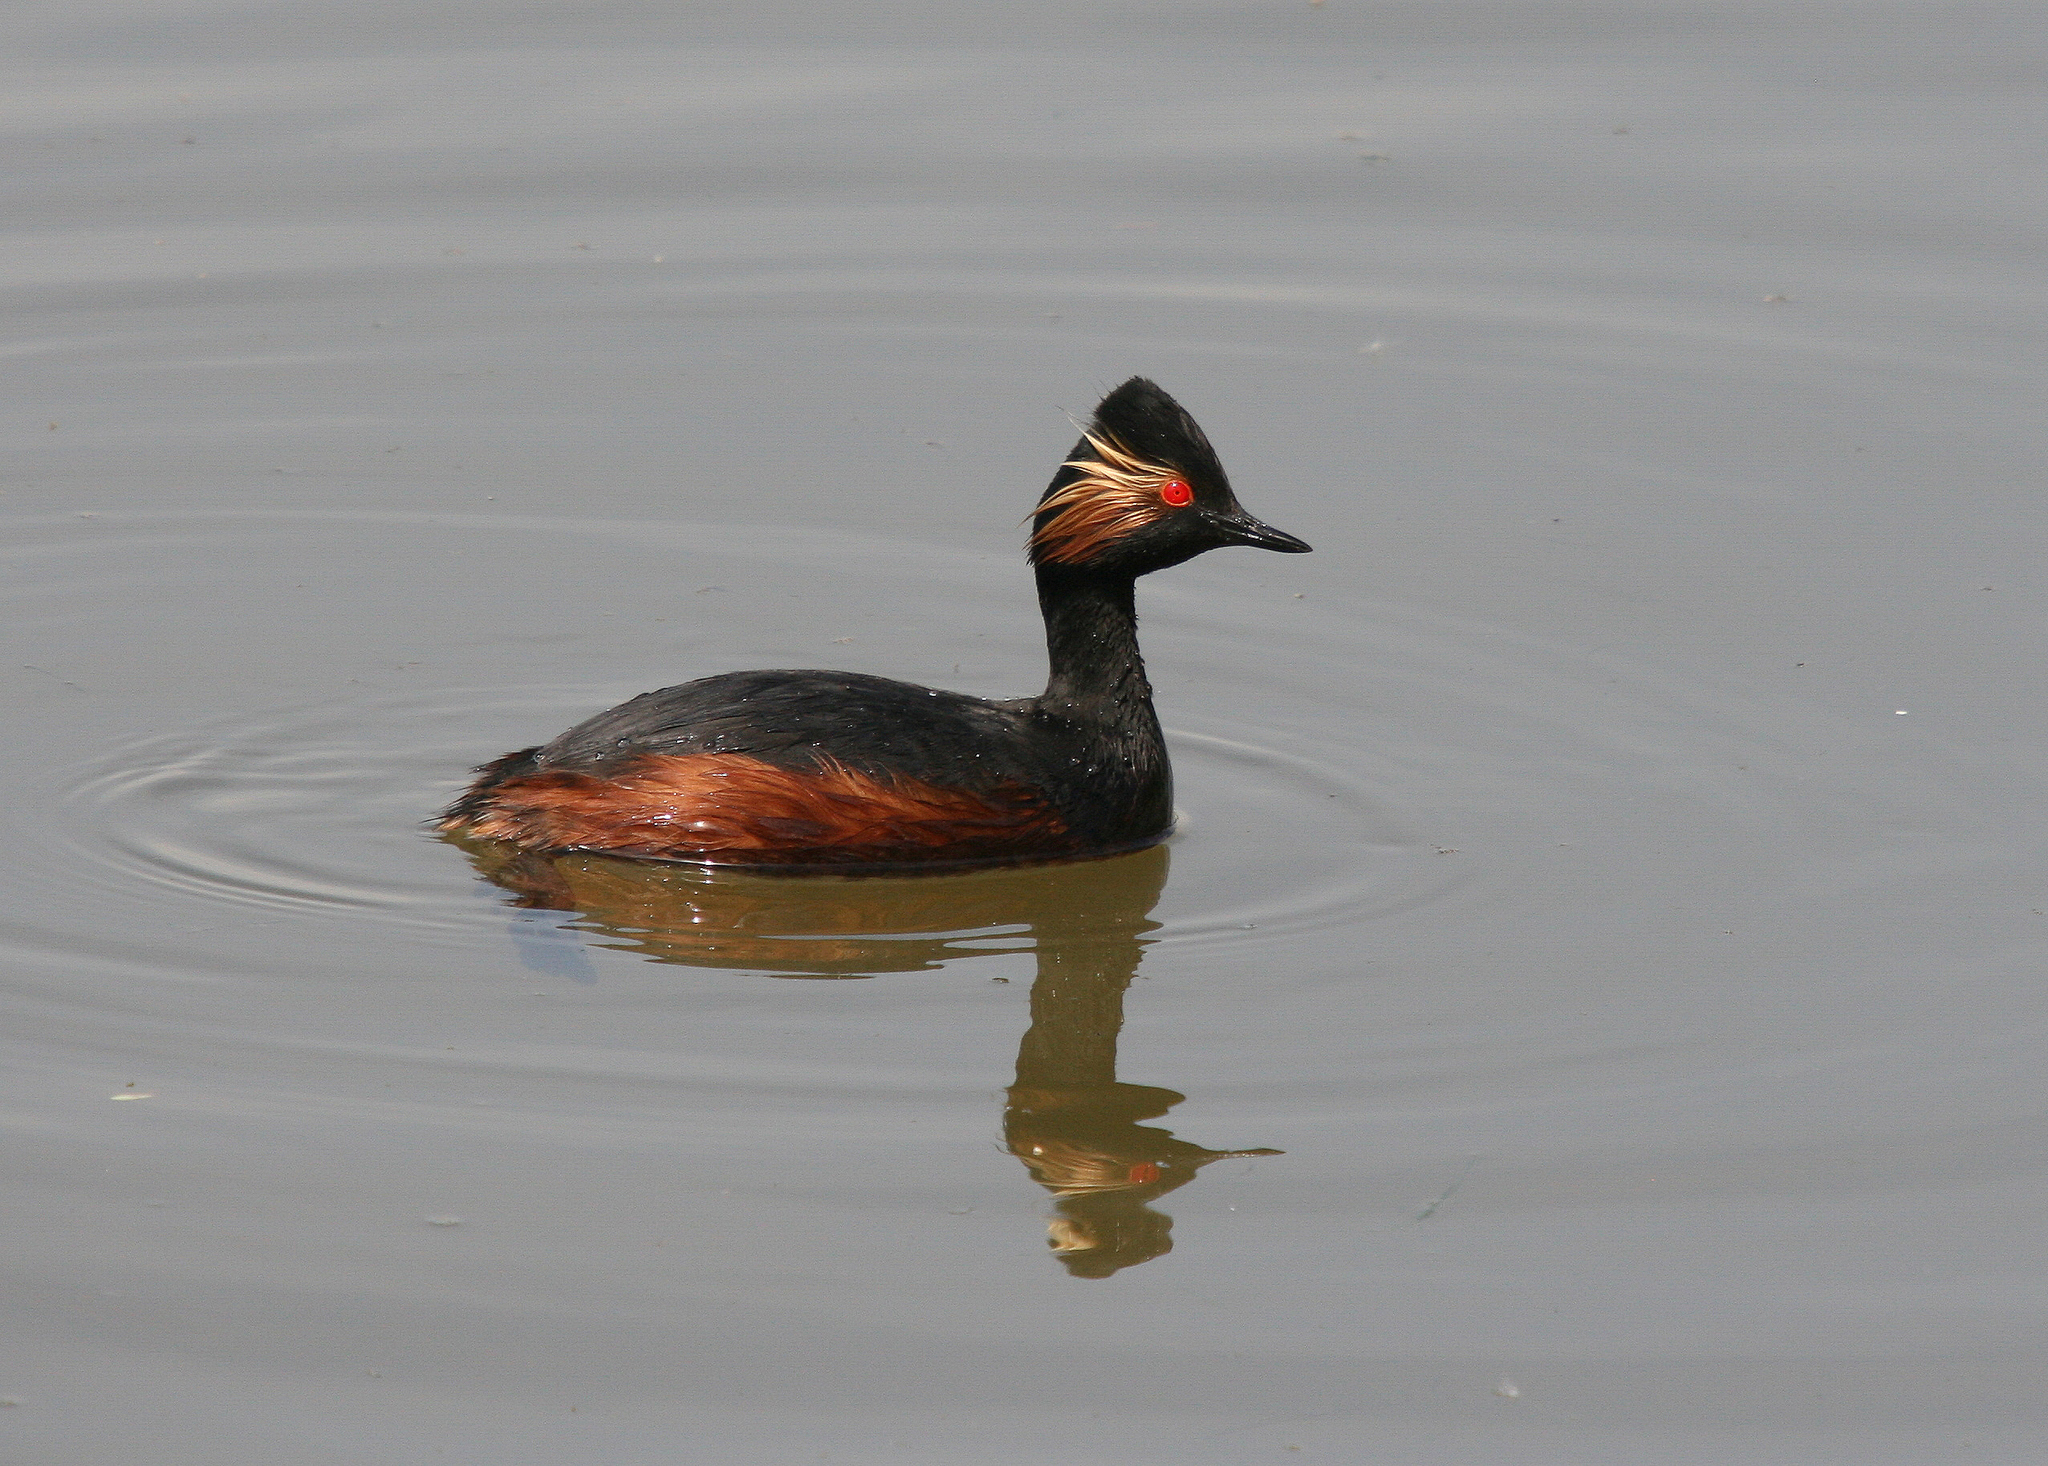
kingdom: Animalia
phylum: Chordata
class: Aves
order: Podicipediformes
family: Podicipedidae
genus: Podiceps
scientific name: Podiceps nigricollis
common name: Black-necked grebe
